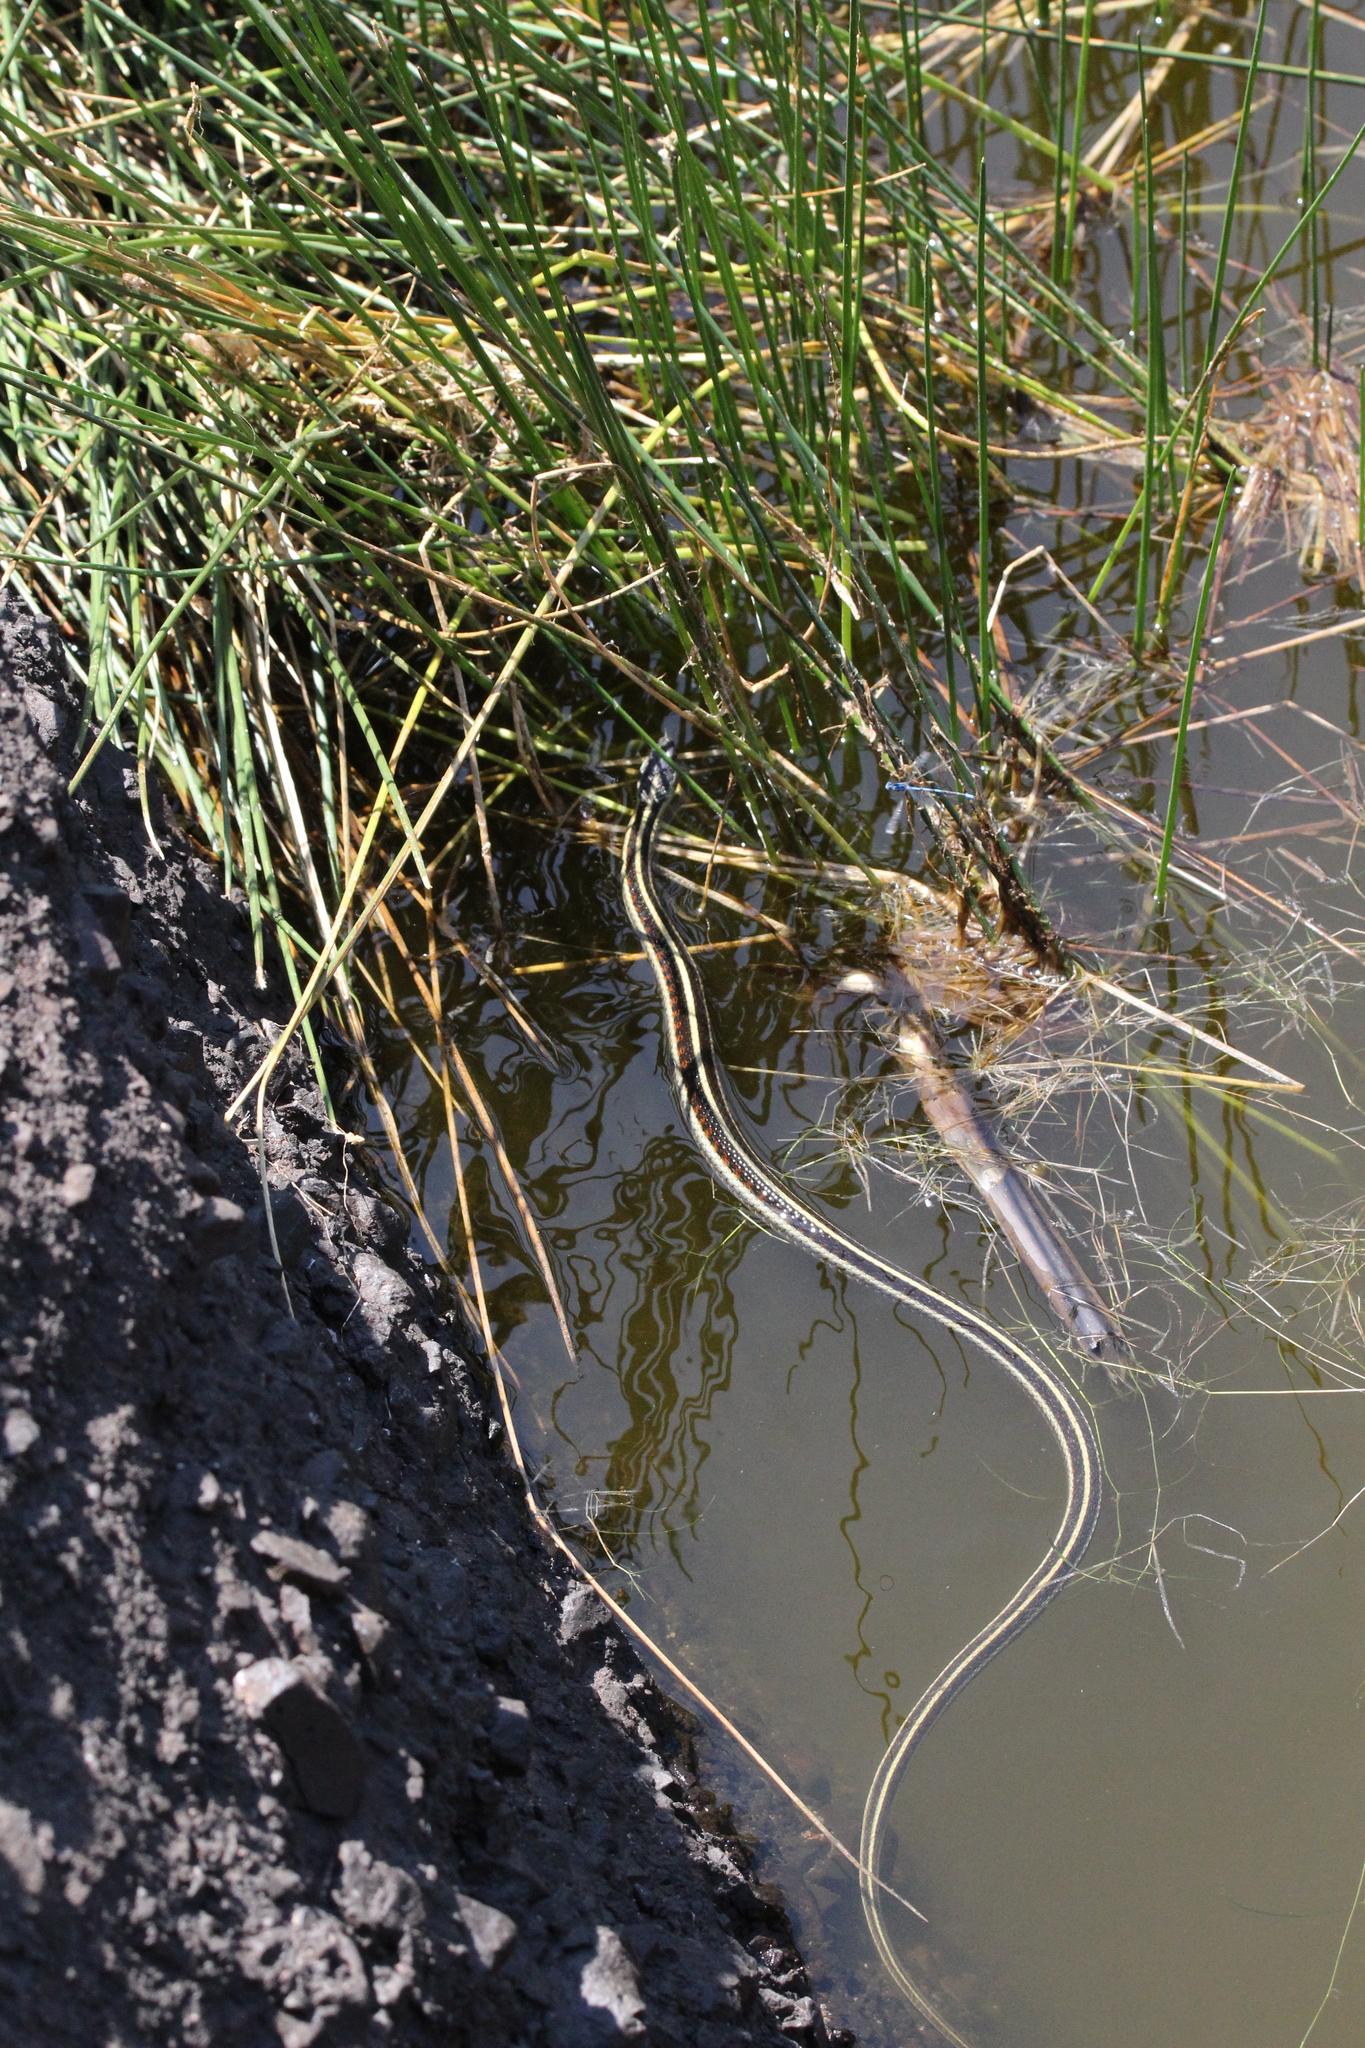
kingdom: Animalia
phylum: Chordata
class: Squamata
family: Colubridae
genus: Thamnophis
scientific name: Thamnophis sirtalis
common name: Common garter snake
